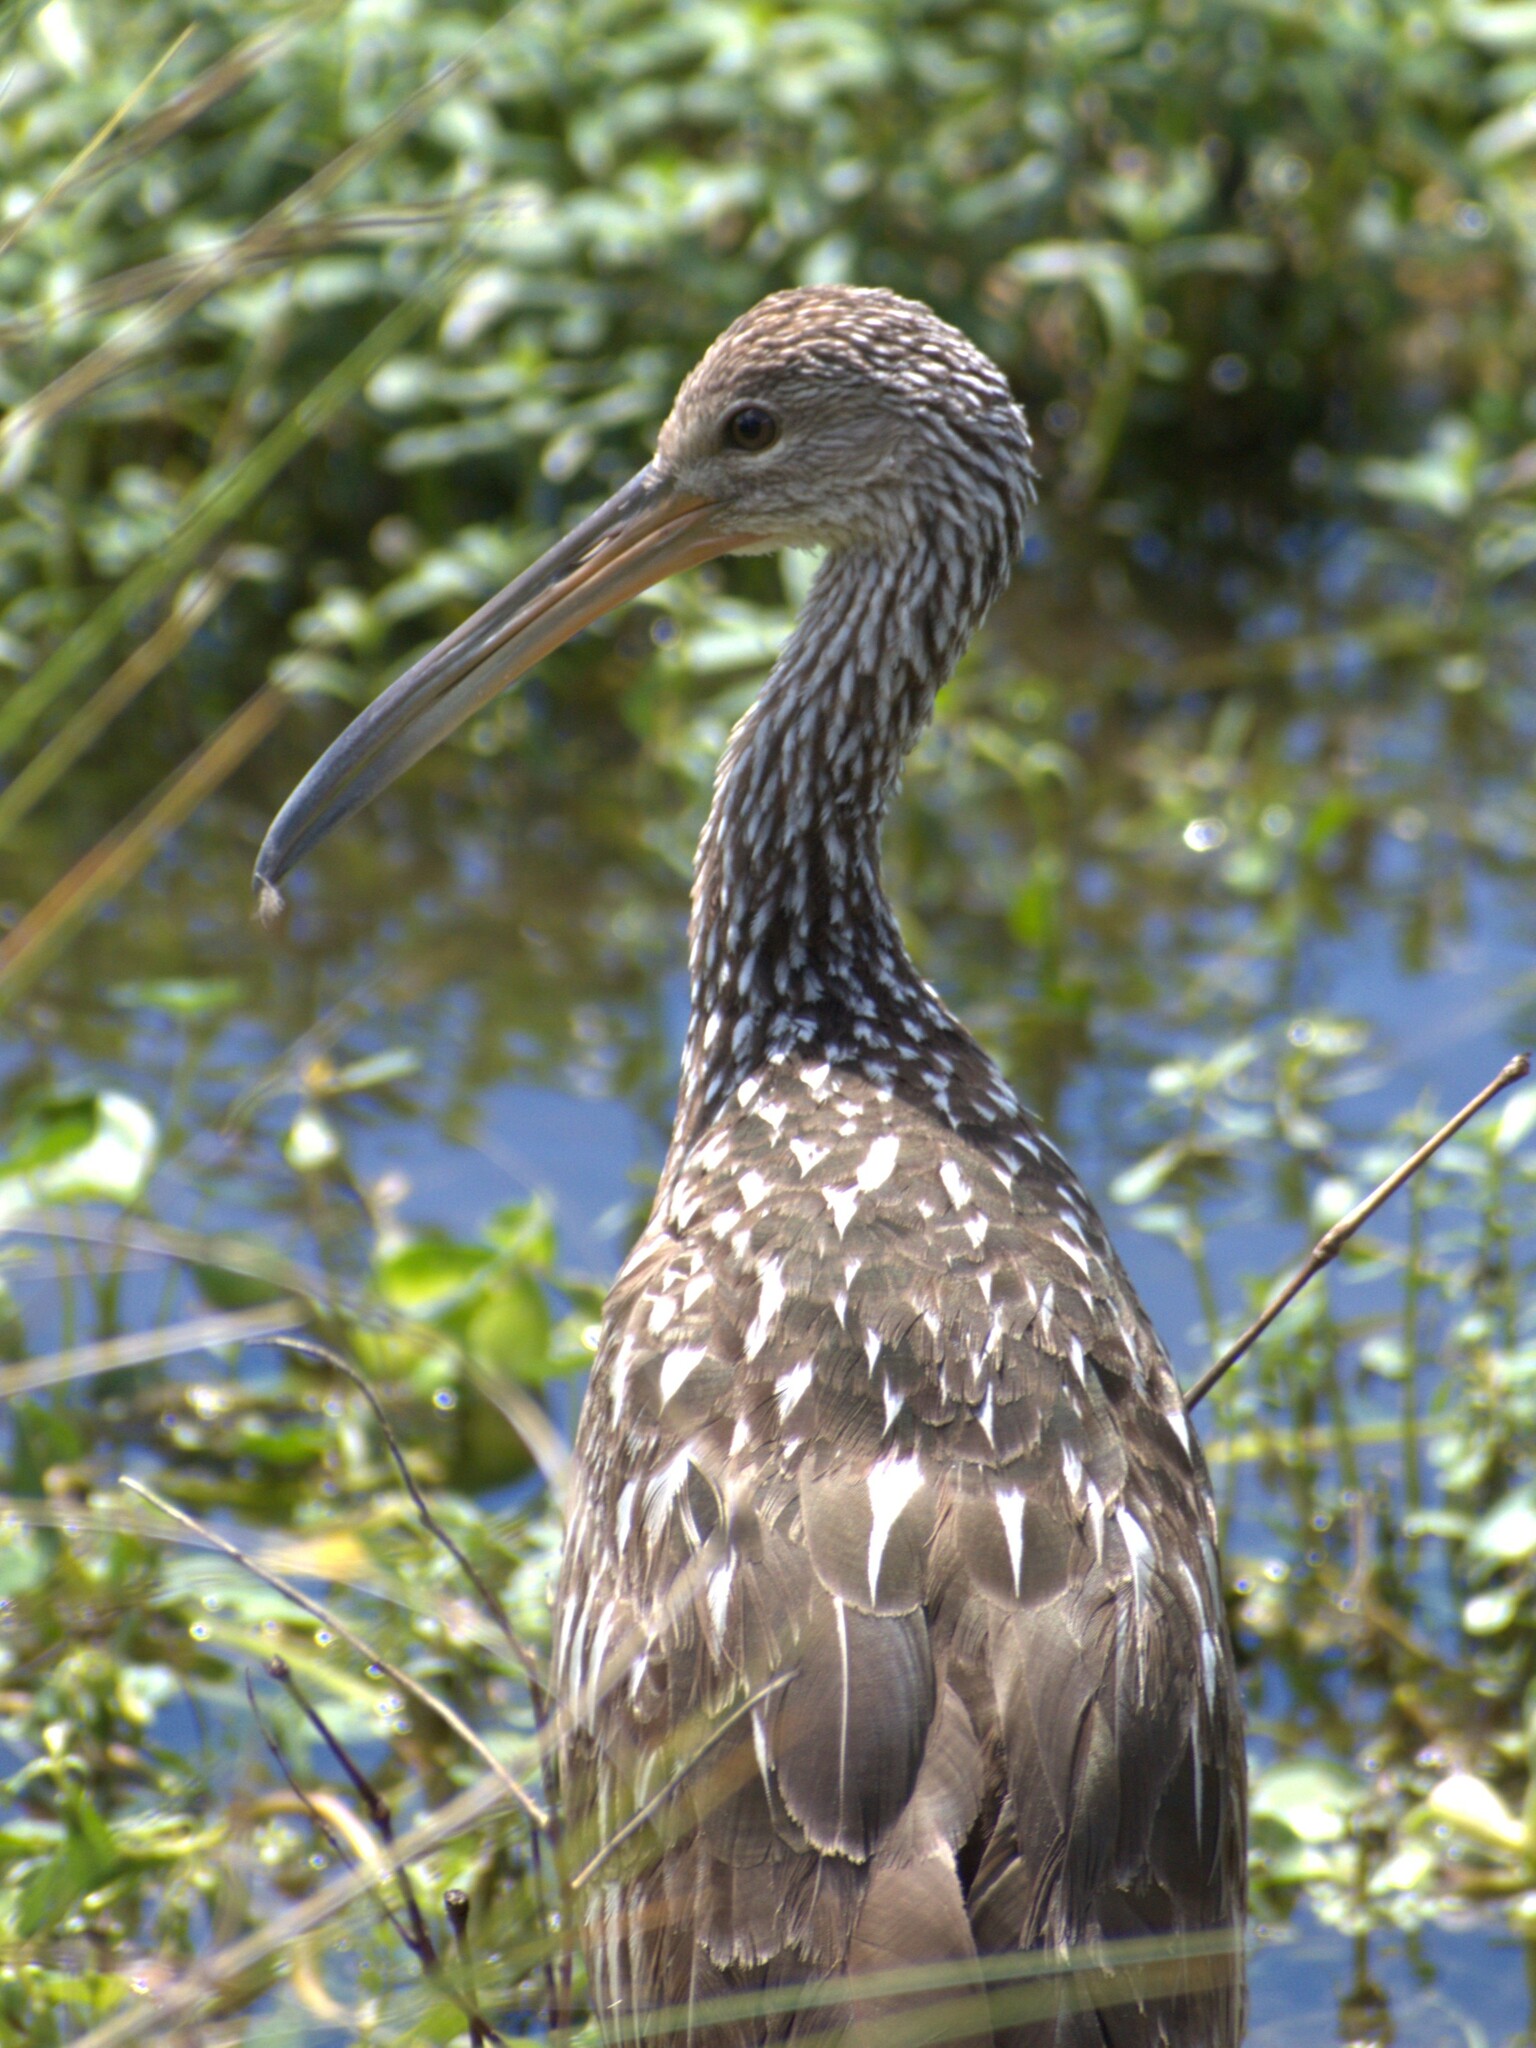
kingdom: Animalia
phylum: Chordata
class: Aves
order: Gruiformes
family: Aramidae
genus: Aramus
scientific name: Aramus guarauna
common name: Limpkin
